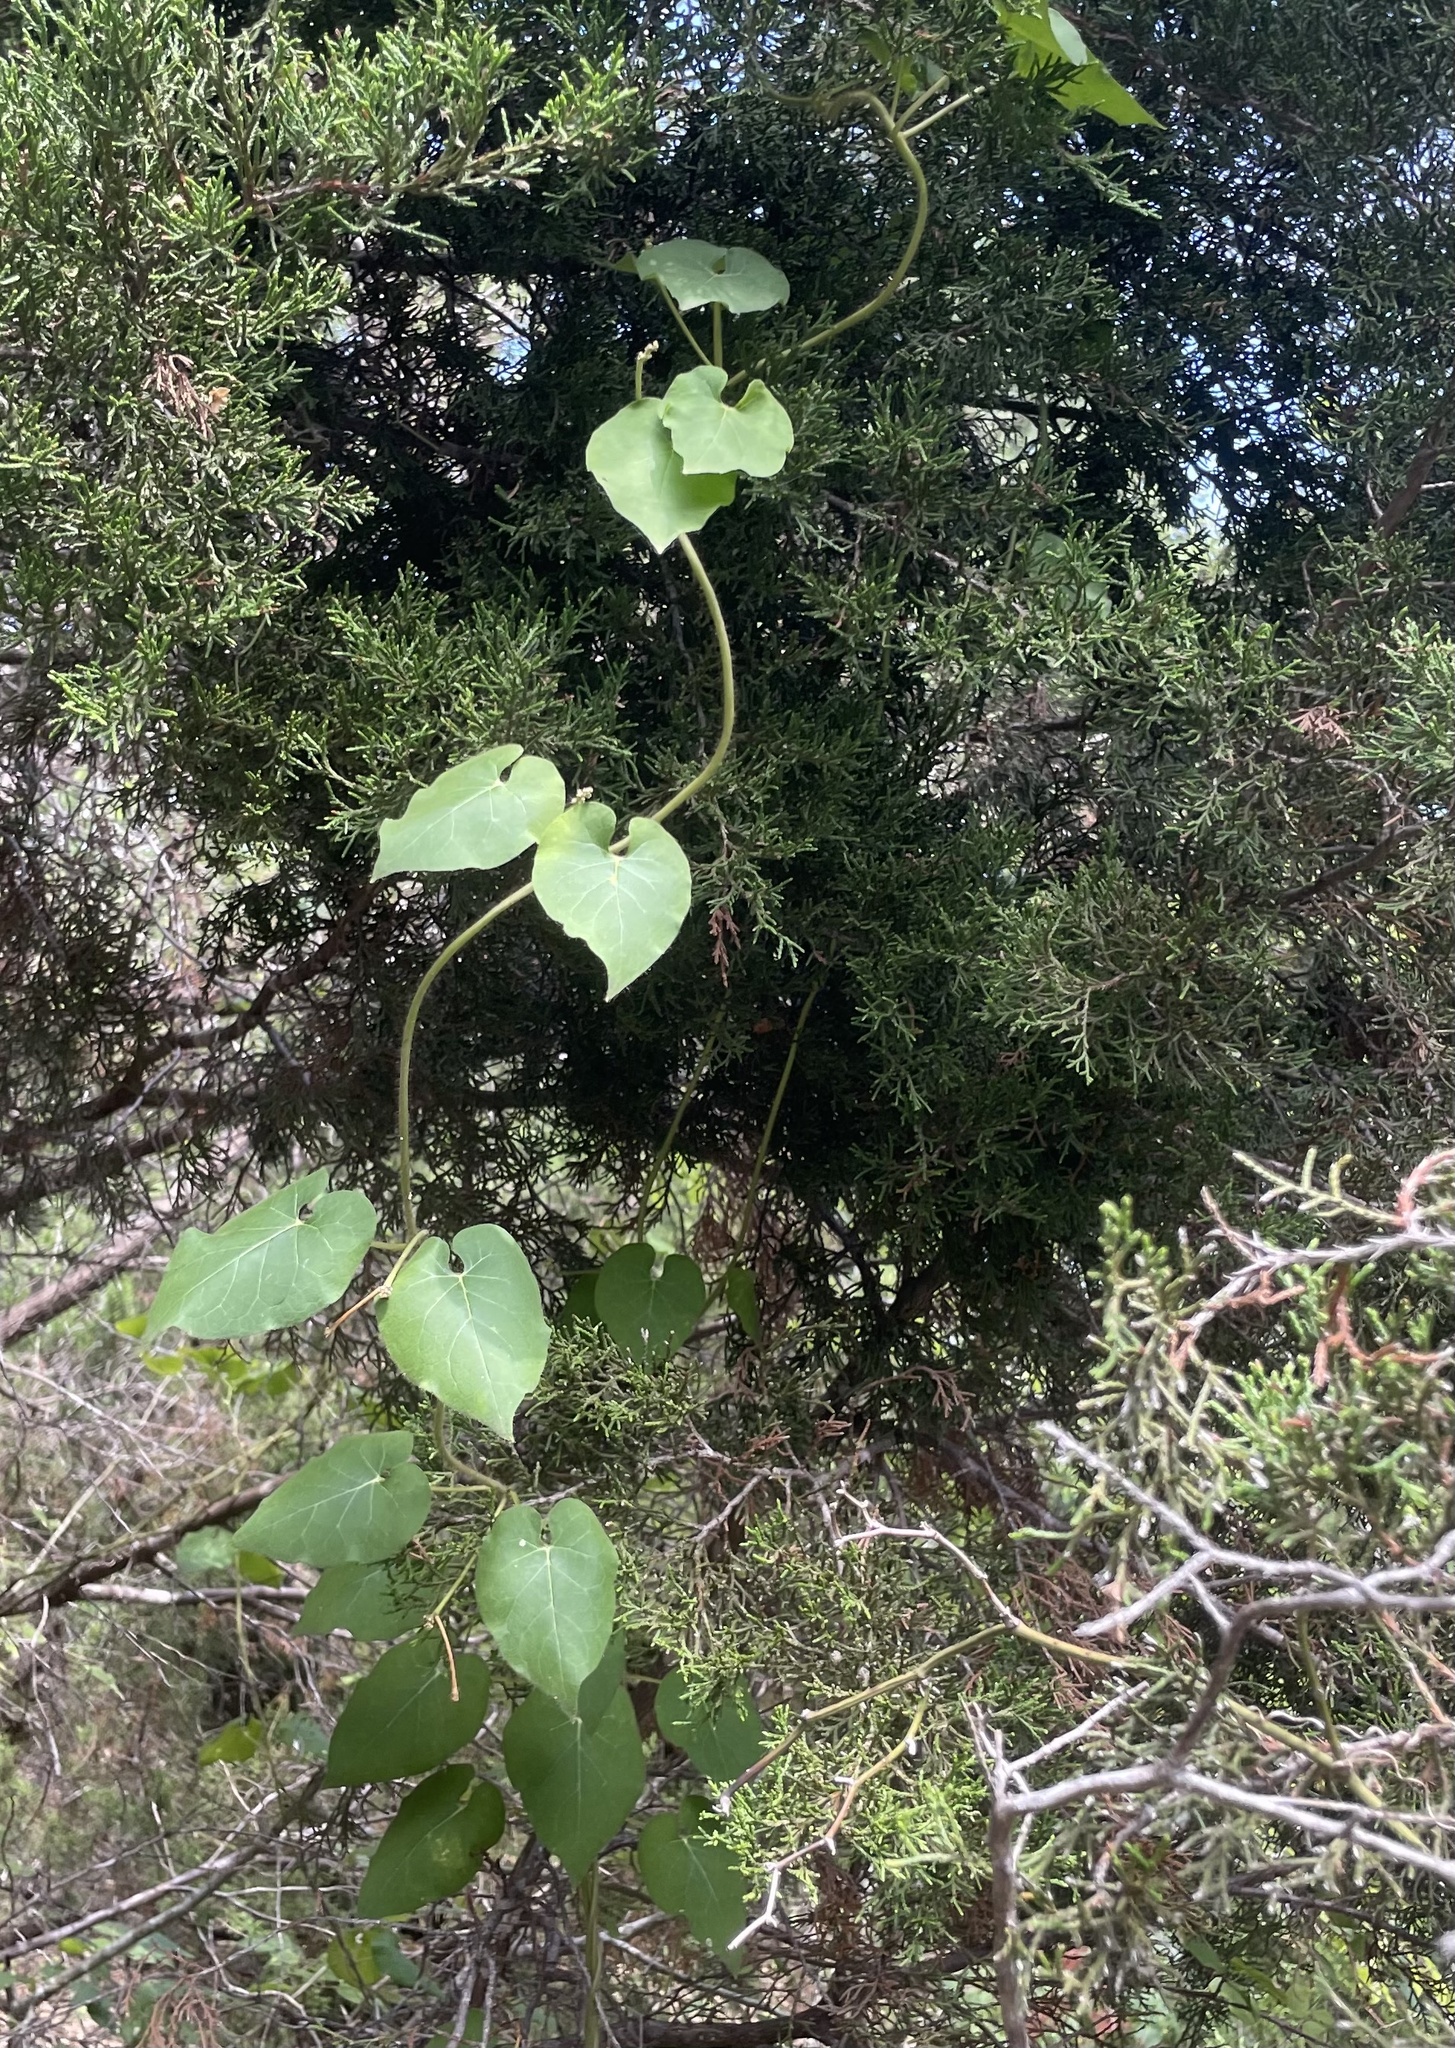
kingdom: Plantae
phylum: Tracheophyta
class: Magnoliopsida
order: Gentianales
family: Apocynaceae
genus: Dictyanthus
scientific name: Dictyanthus reticulatus
